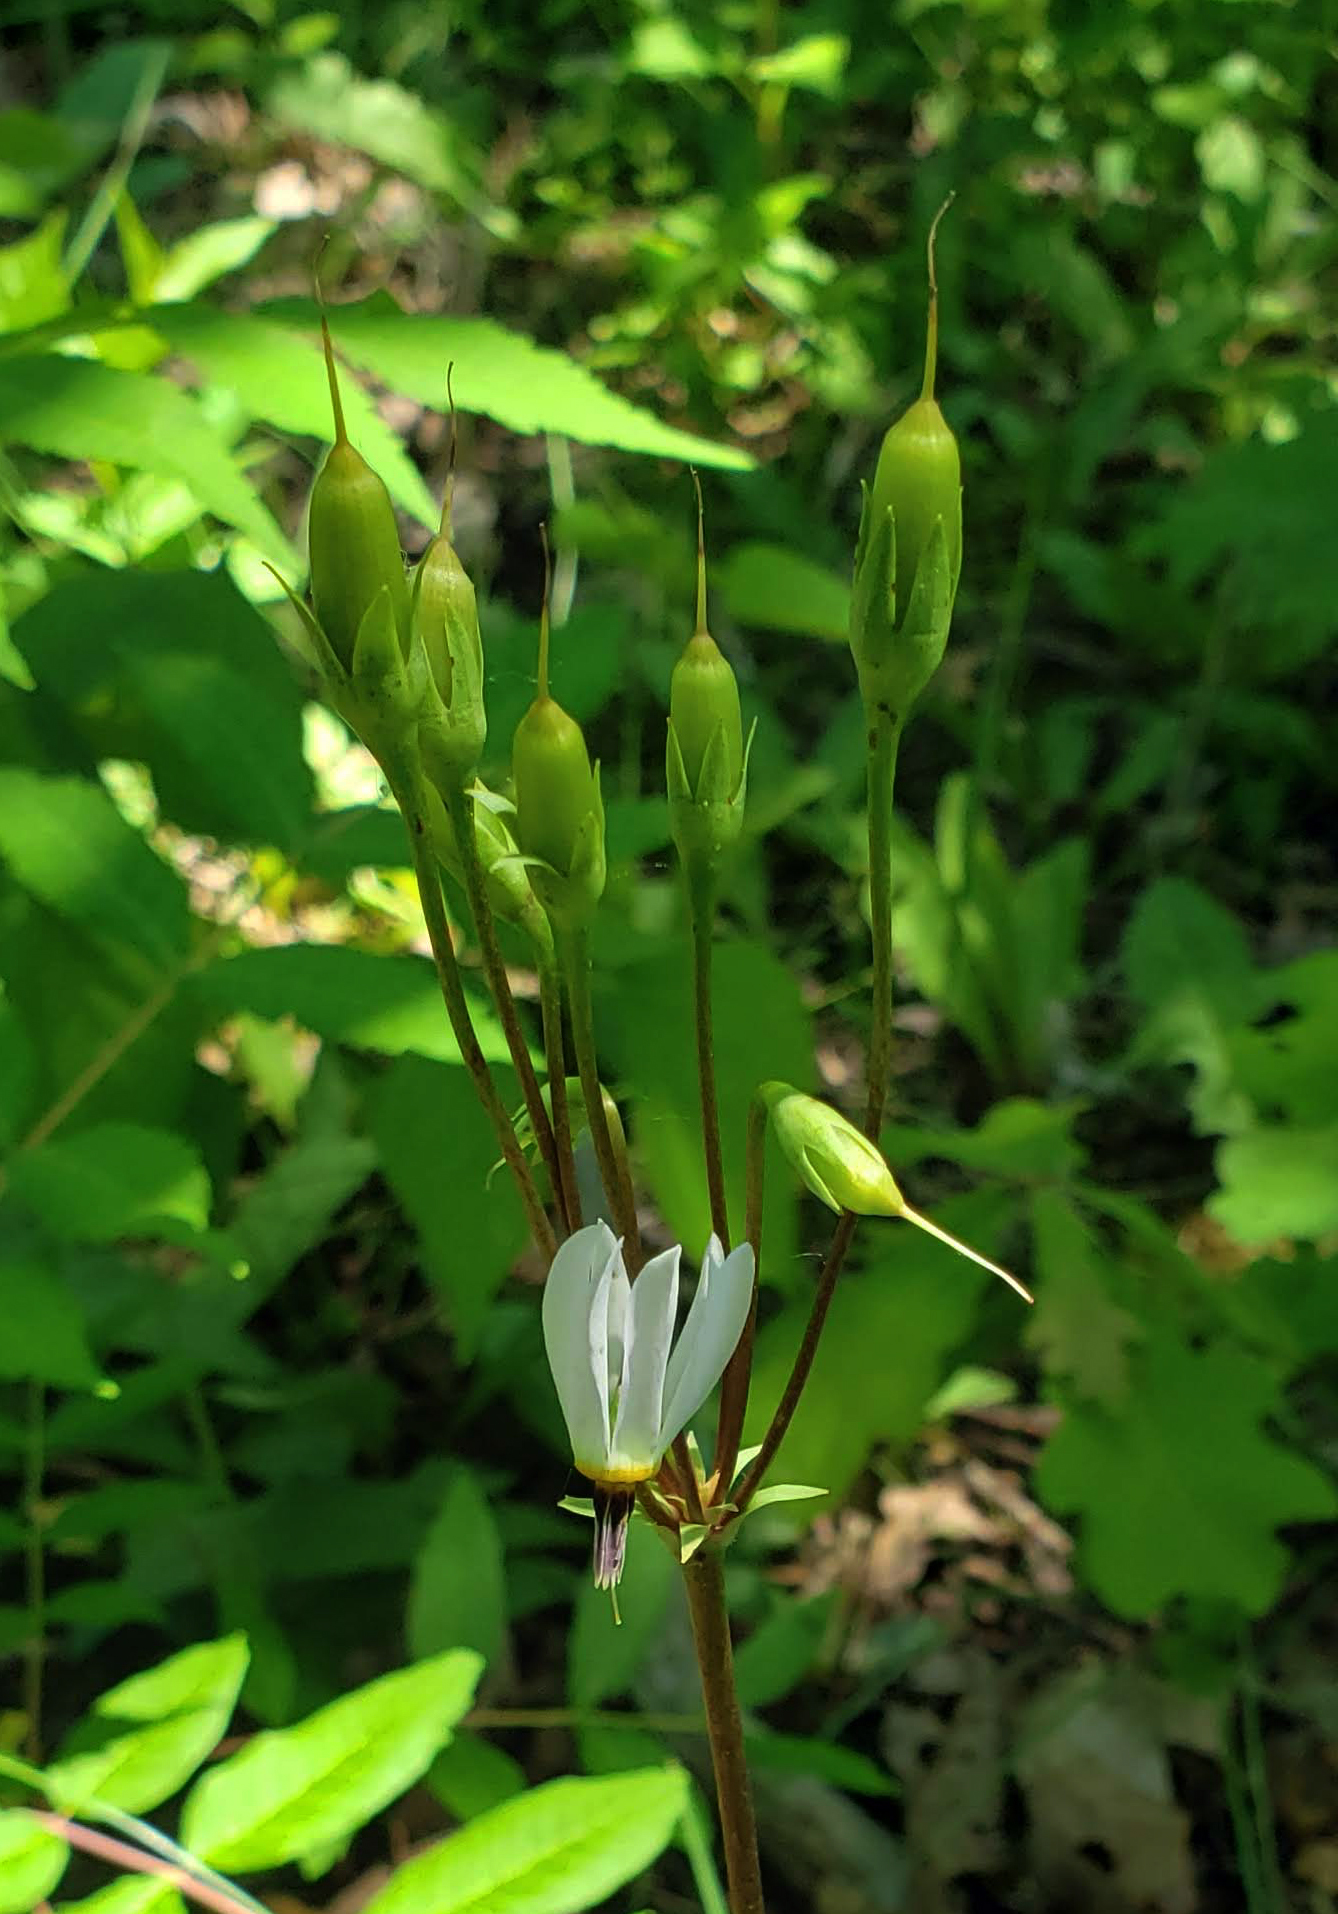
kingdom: Plantae
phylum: Tracheophyta
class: Magnoliopsida
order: Ericales
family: Primulaceae
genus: Dodecatheon
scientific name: Dodecatheon meadia
